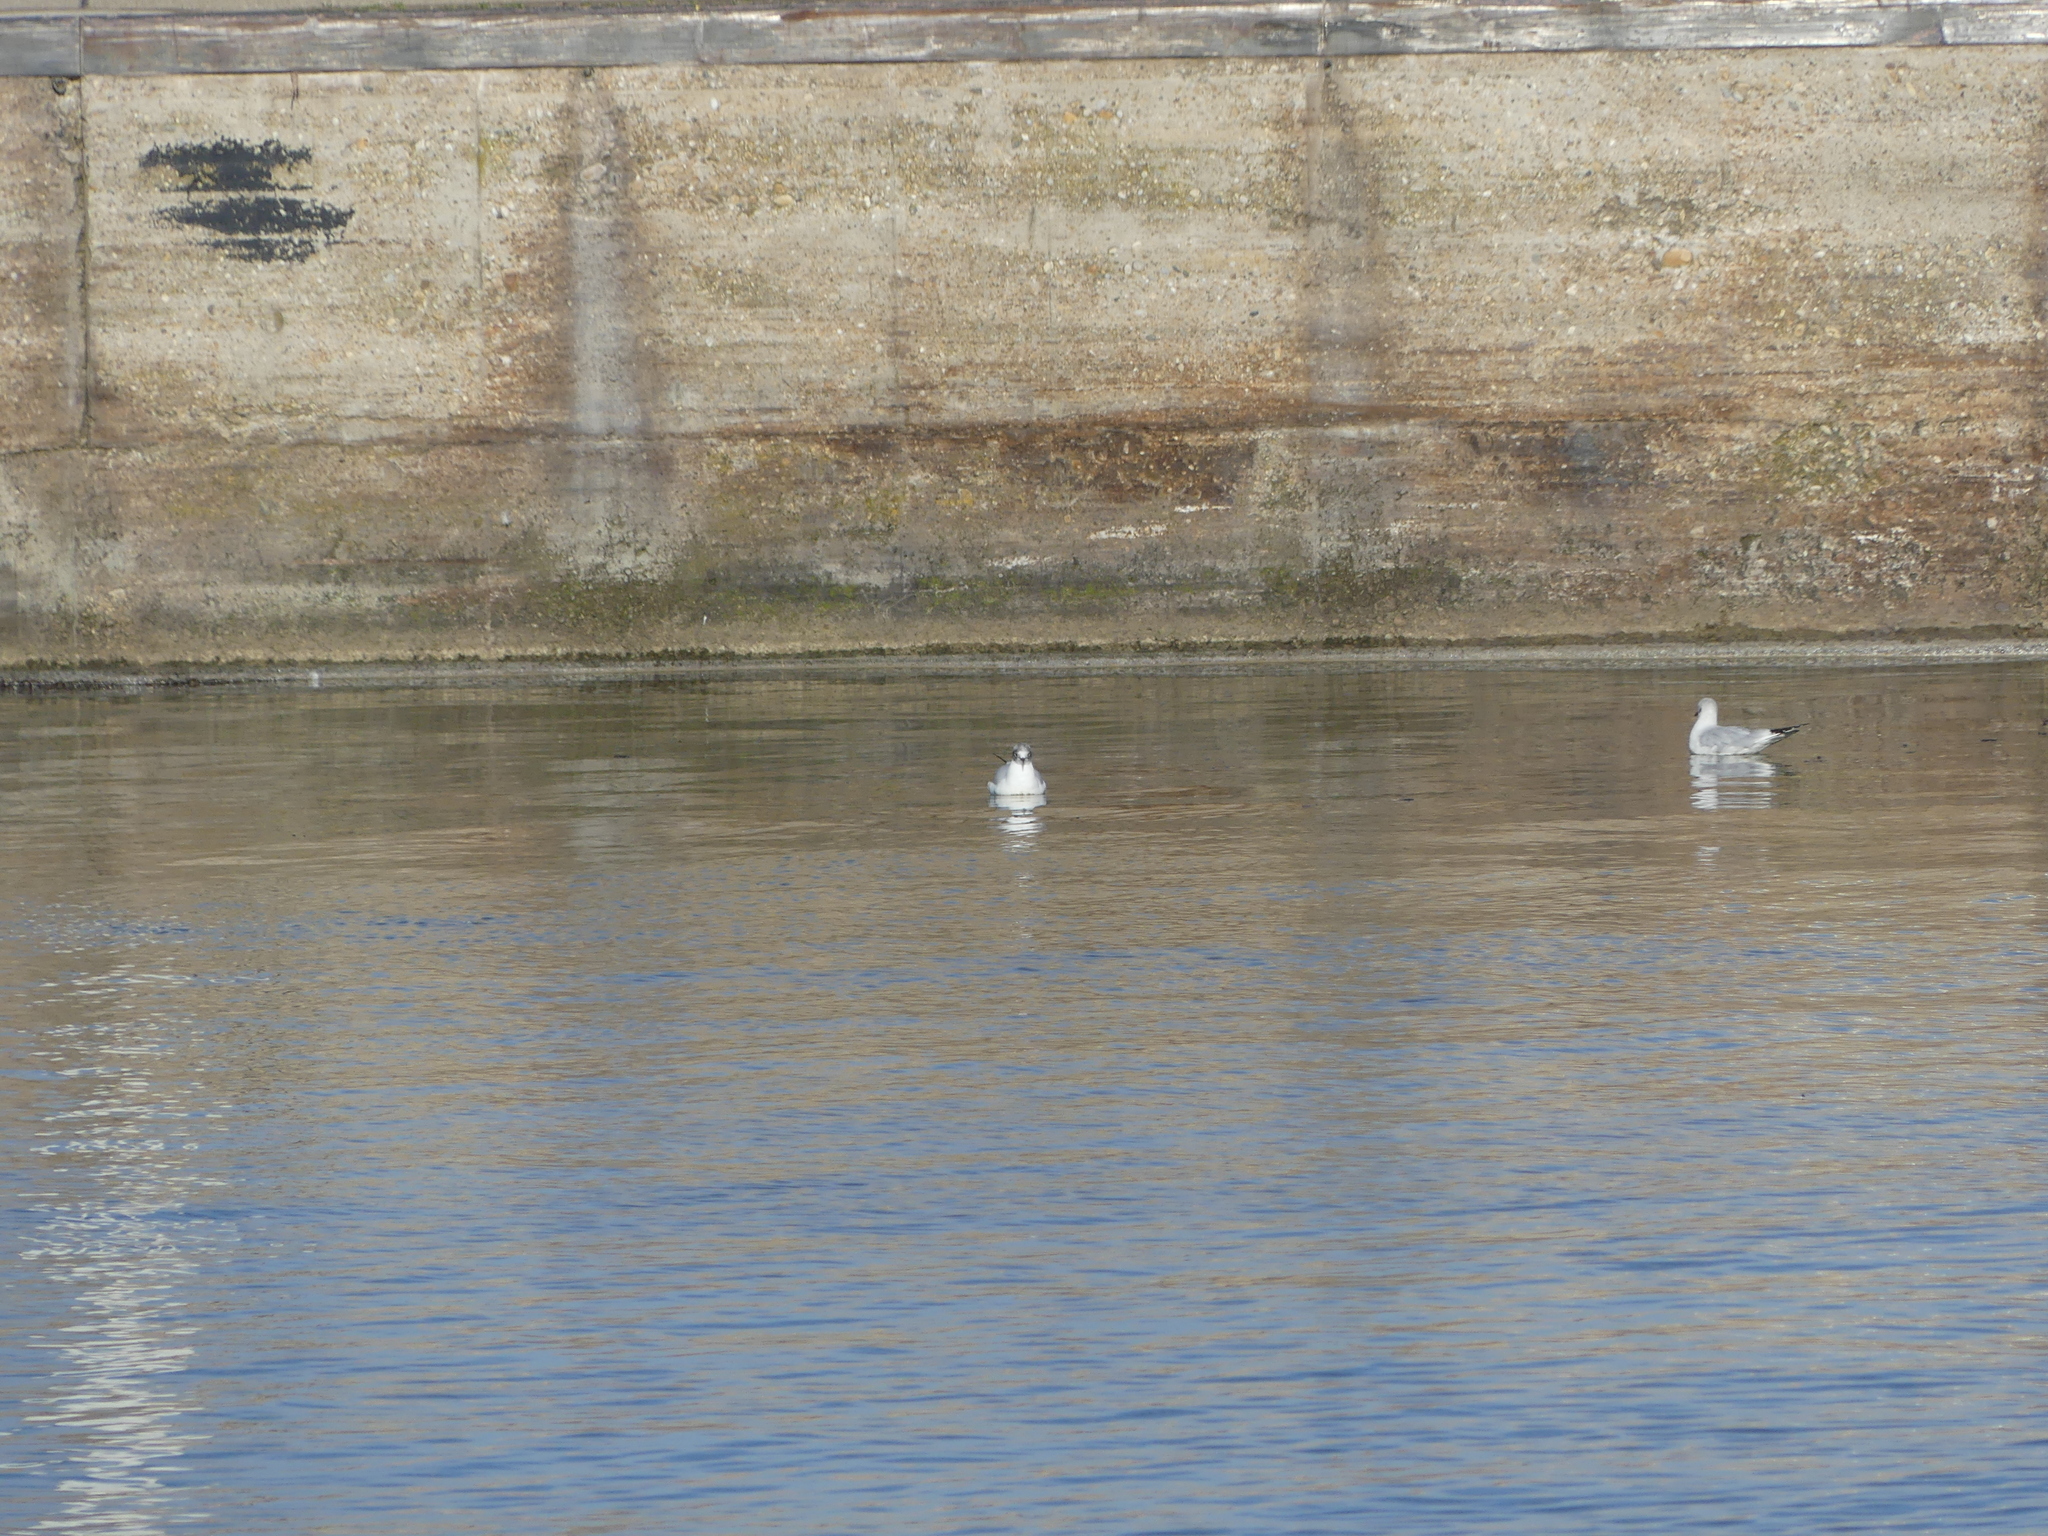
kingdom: Animalia
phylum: Chordata
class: Aves
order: Charadriiformes
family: Laridae
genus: Chroicocephalus
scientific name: Chroicocephalus ridibundus
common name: Black-headed gull
